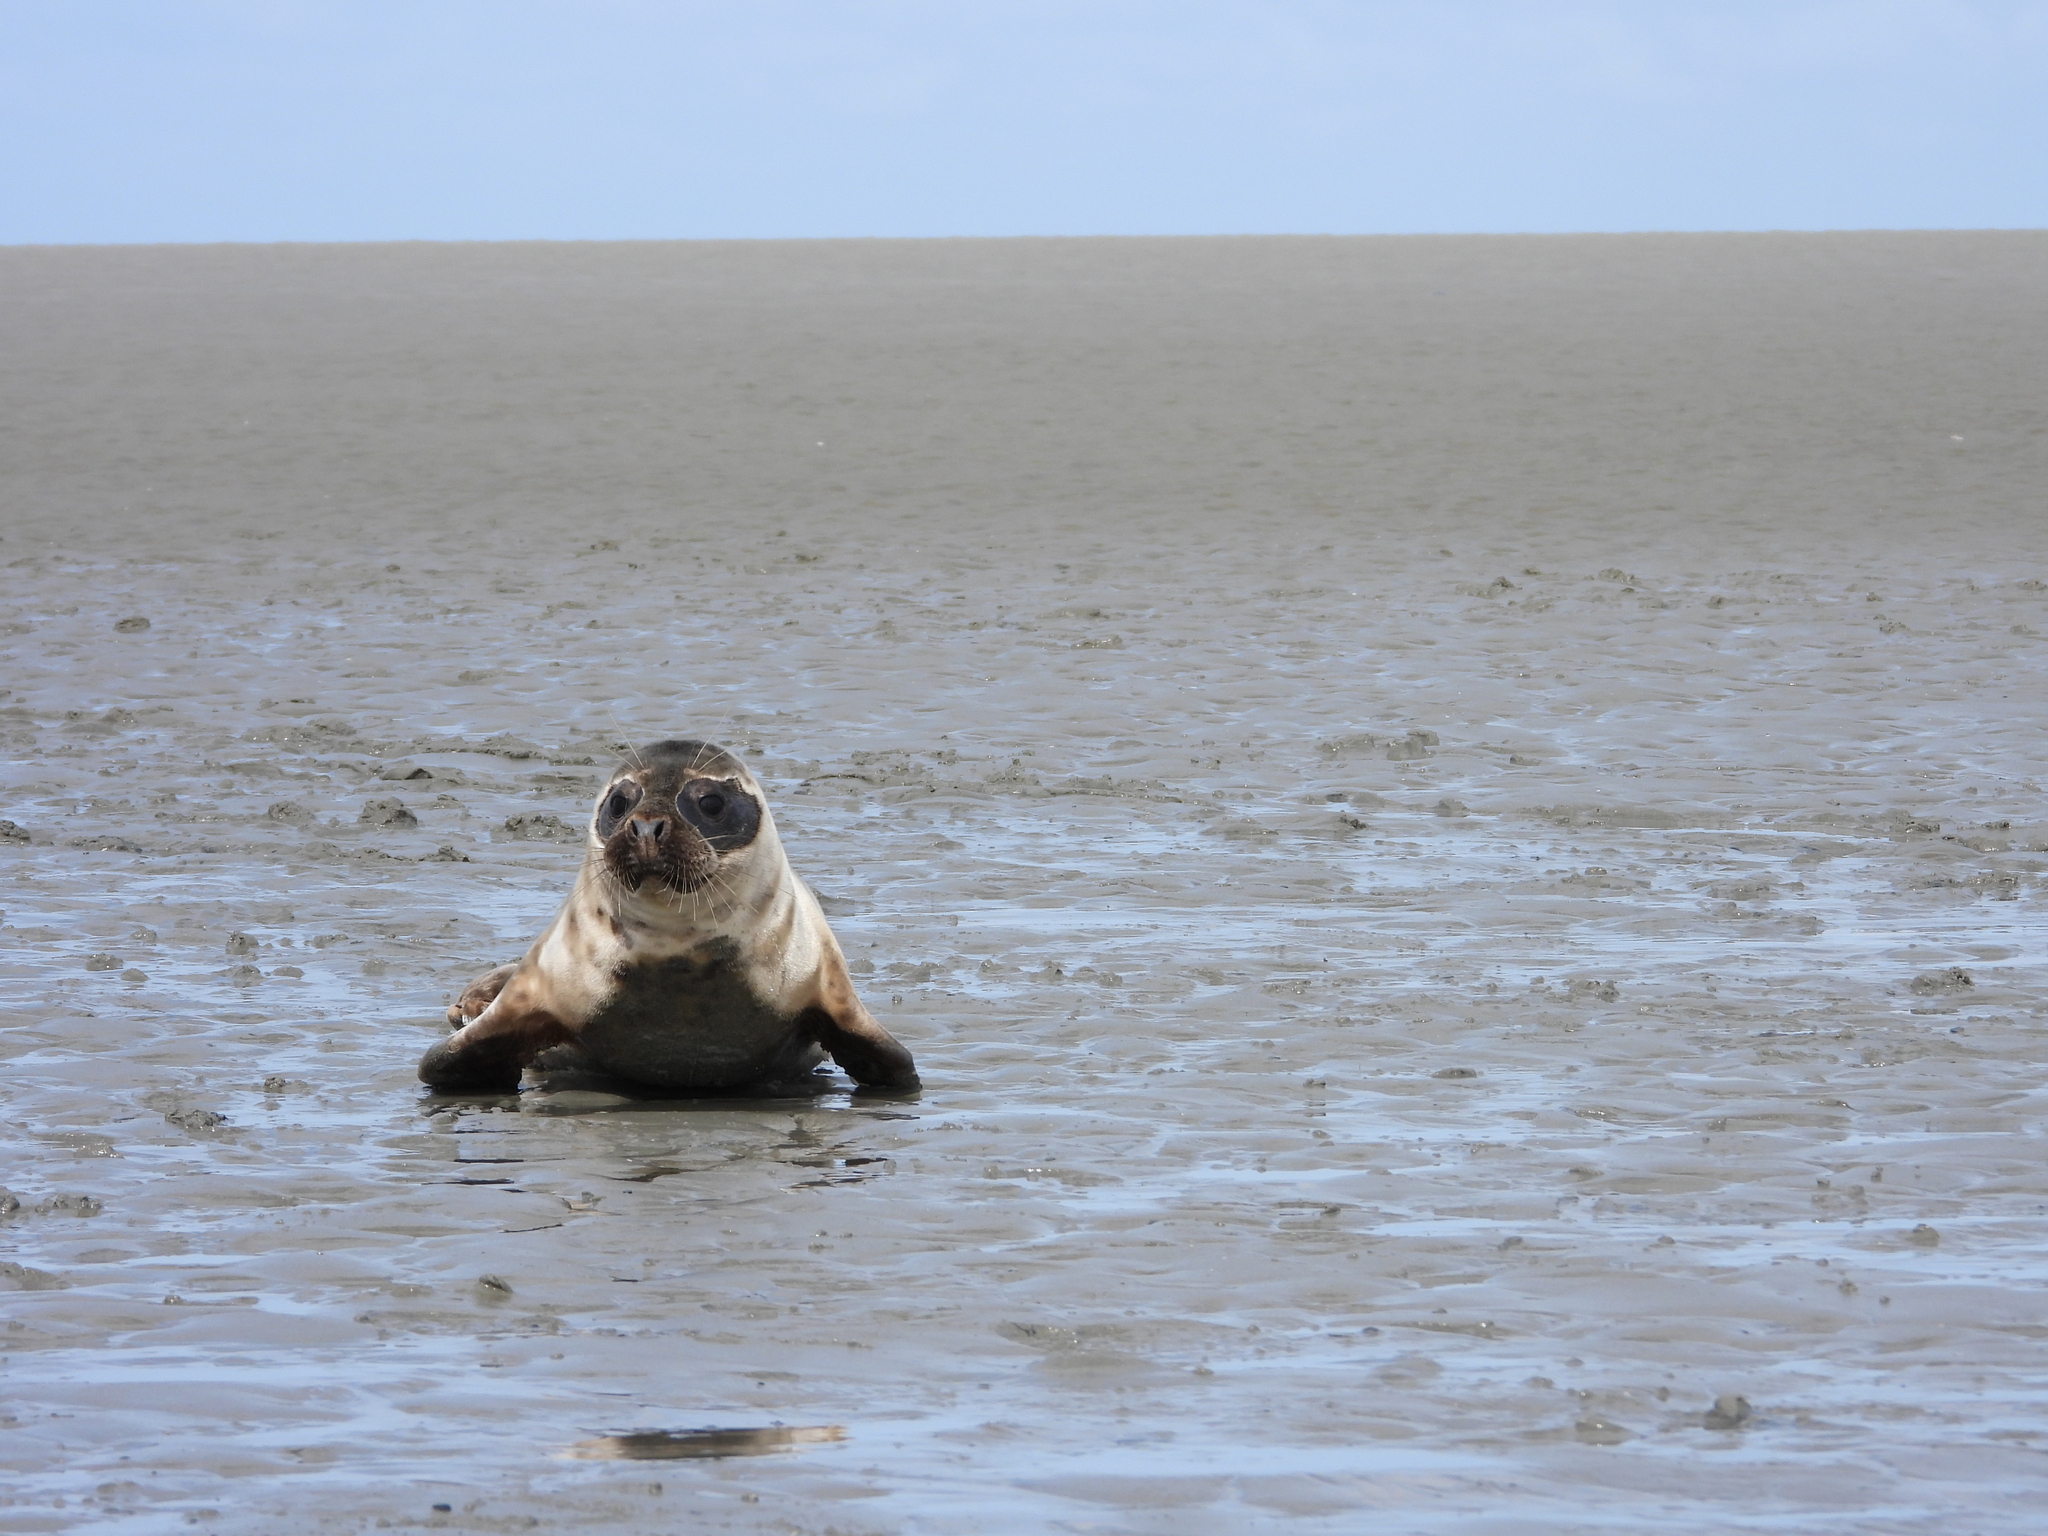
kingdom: Animalia
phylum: Chordata
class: Mammalia
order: Carnivora
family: Phocidae
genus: Halichoerus
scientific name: Halichoerus grypus
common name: Grey seal
